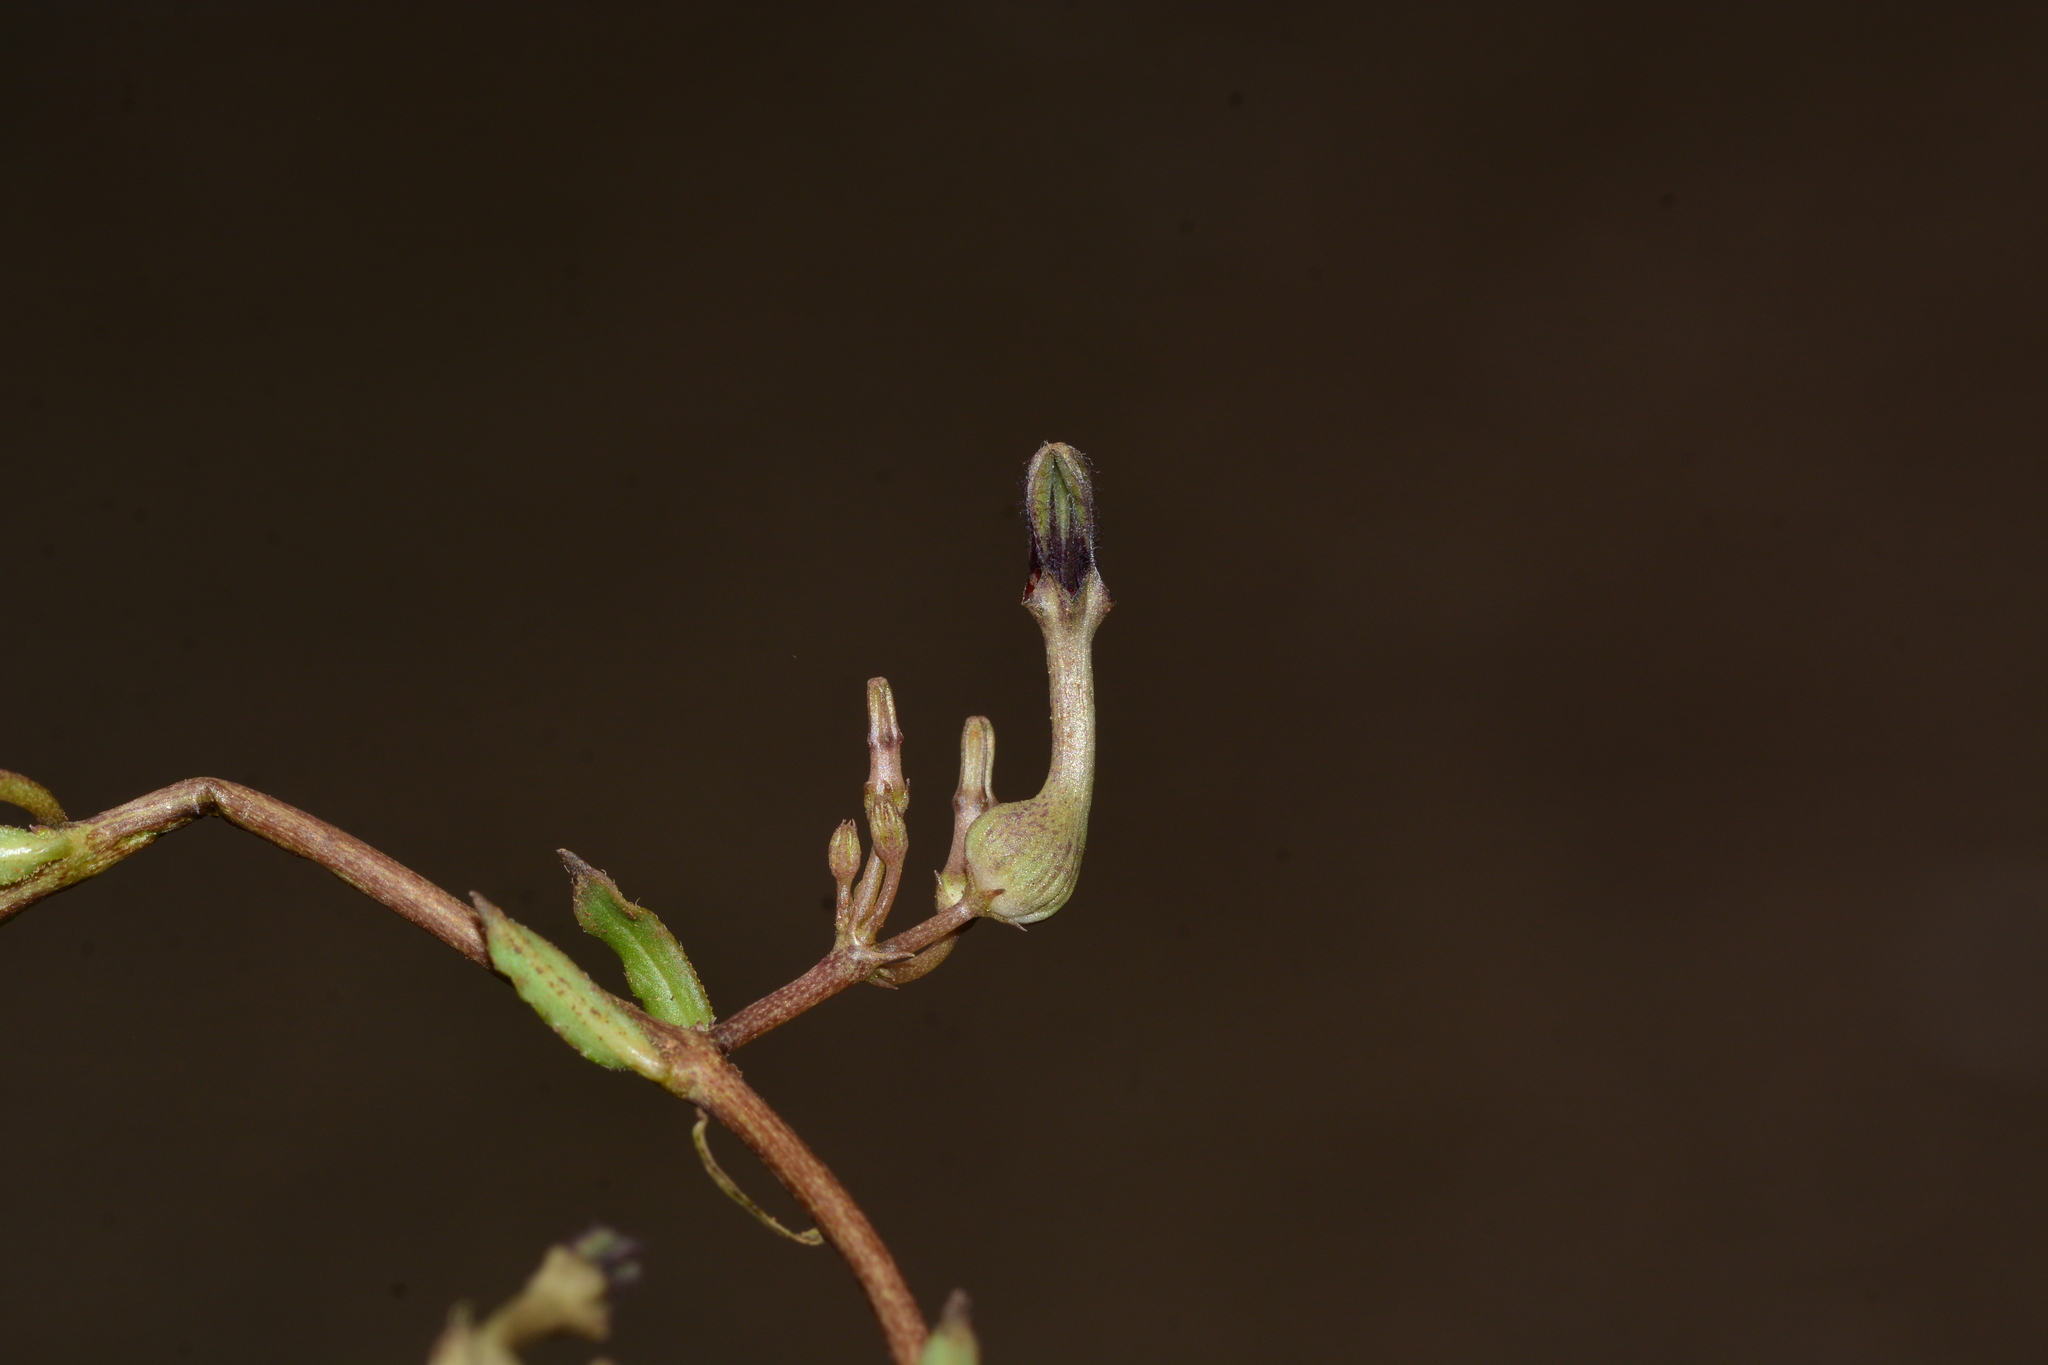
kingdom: Plantae
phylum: Tracheophyta
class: Magnoliopsida
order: Gentianales
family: Apocynaceae
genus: Ceropegia
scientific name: Ceropegia bulbosa
